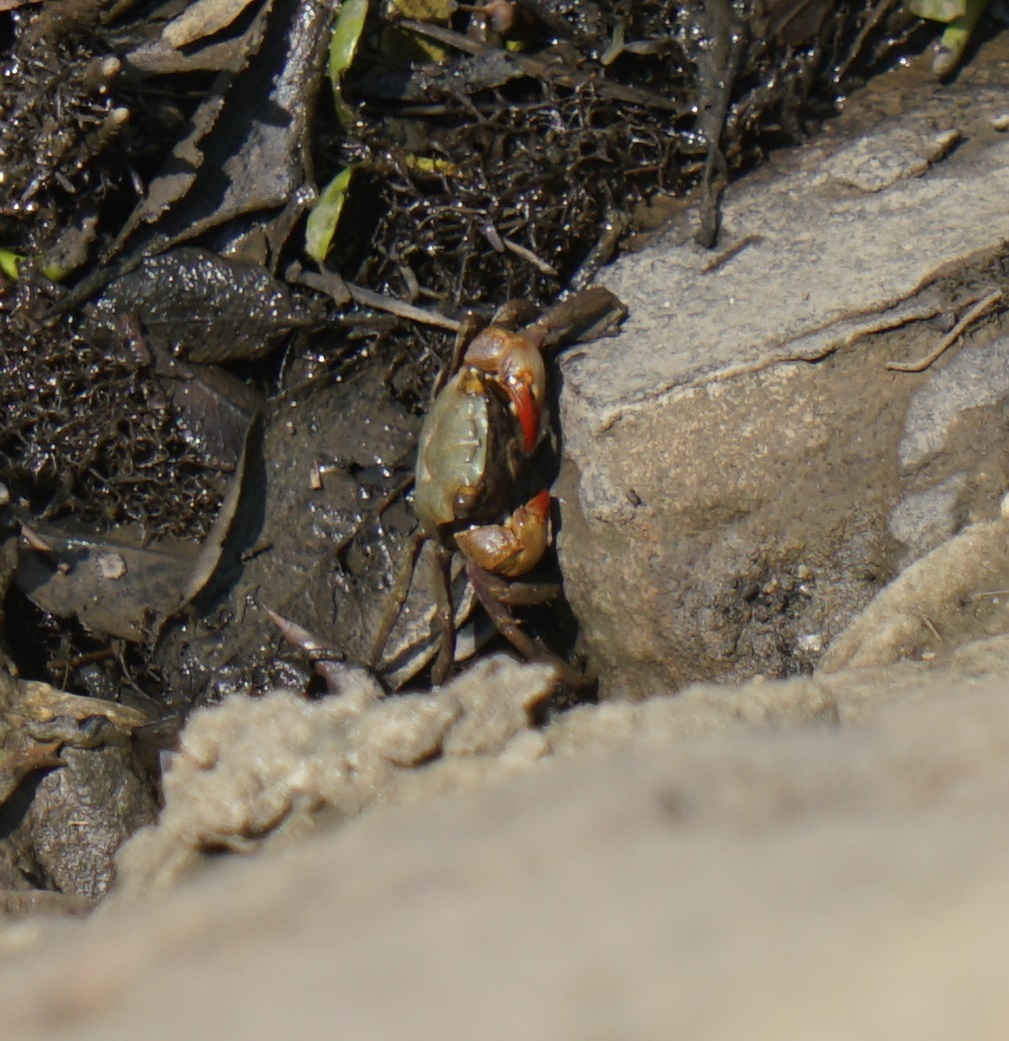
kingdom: Animalia
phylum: Arthropoda
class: Malacostraca
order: Decapoda
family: Sesarmidae
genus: Parasesarma
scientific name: Parasesarma erythodactylum
